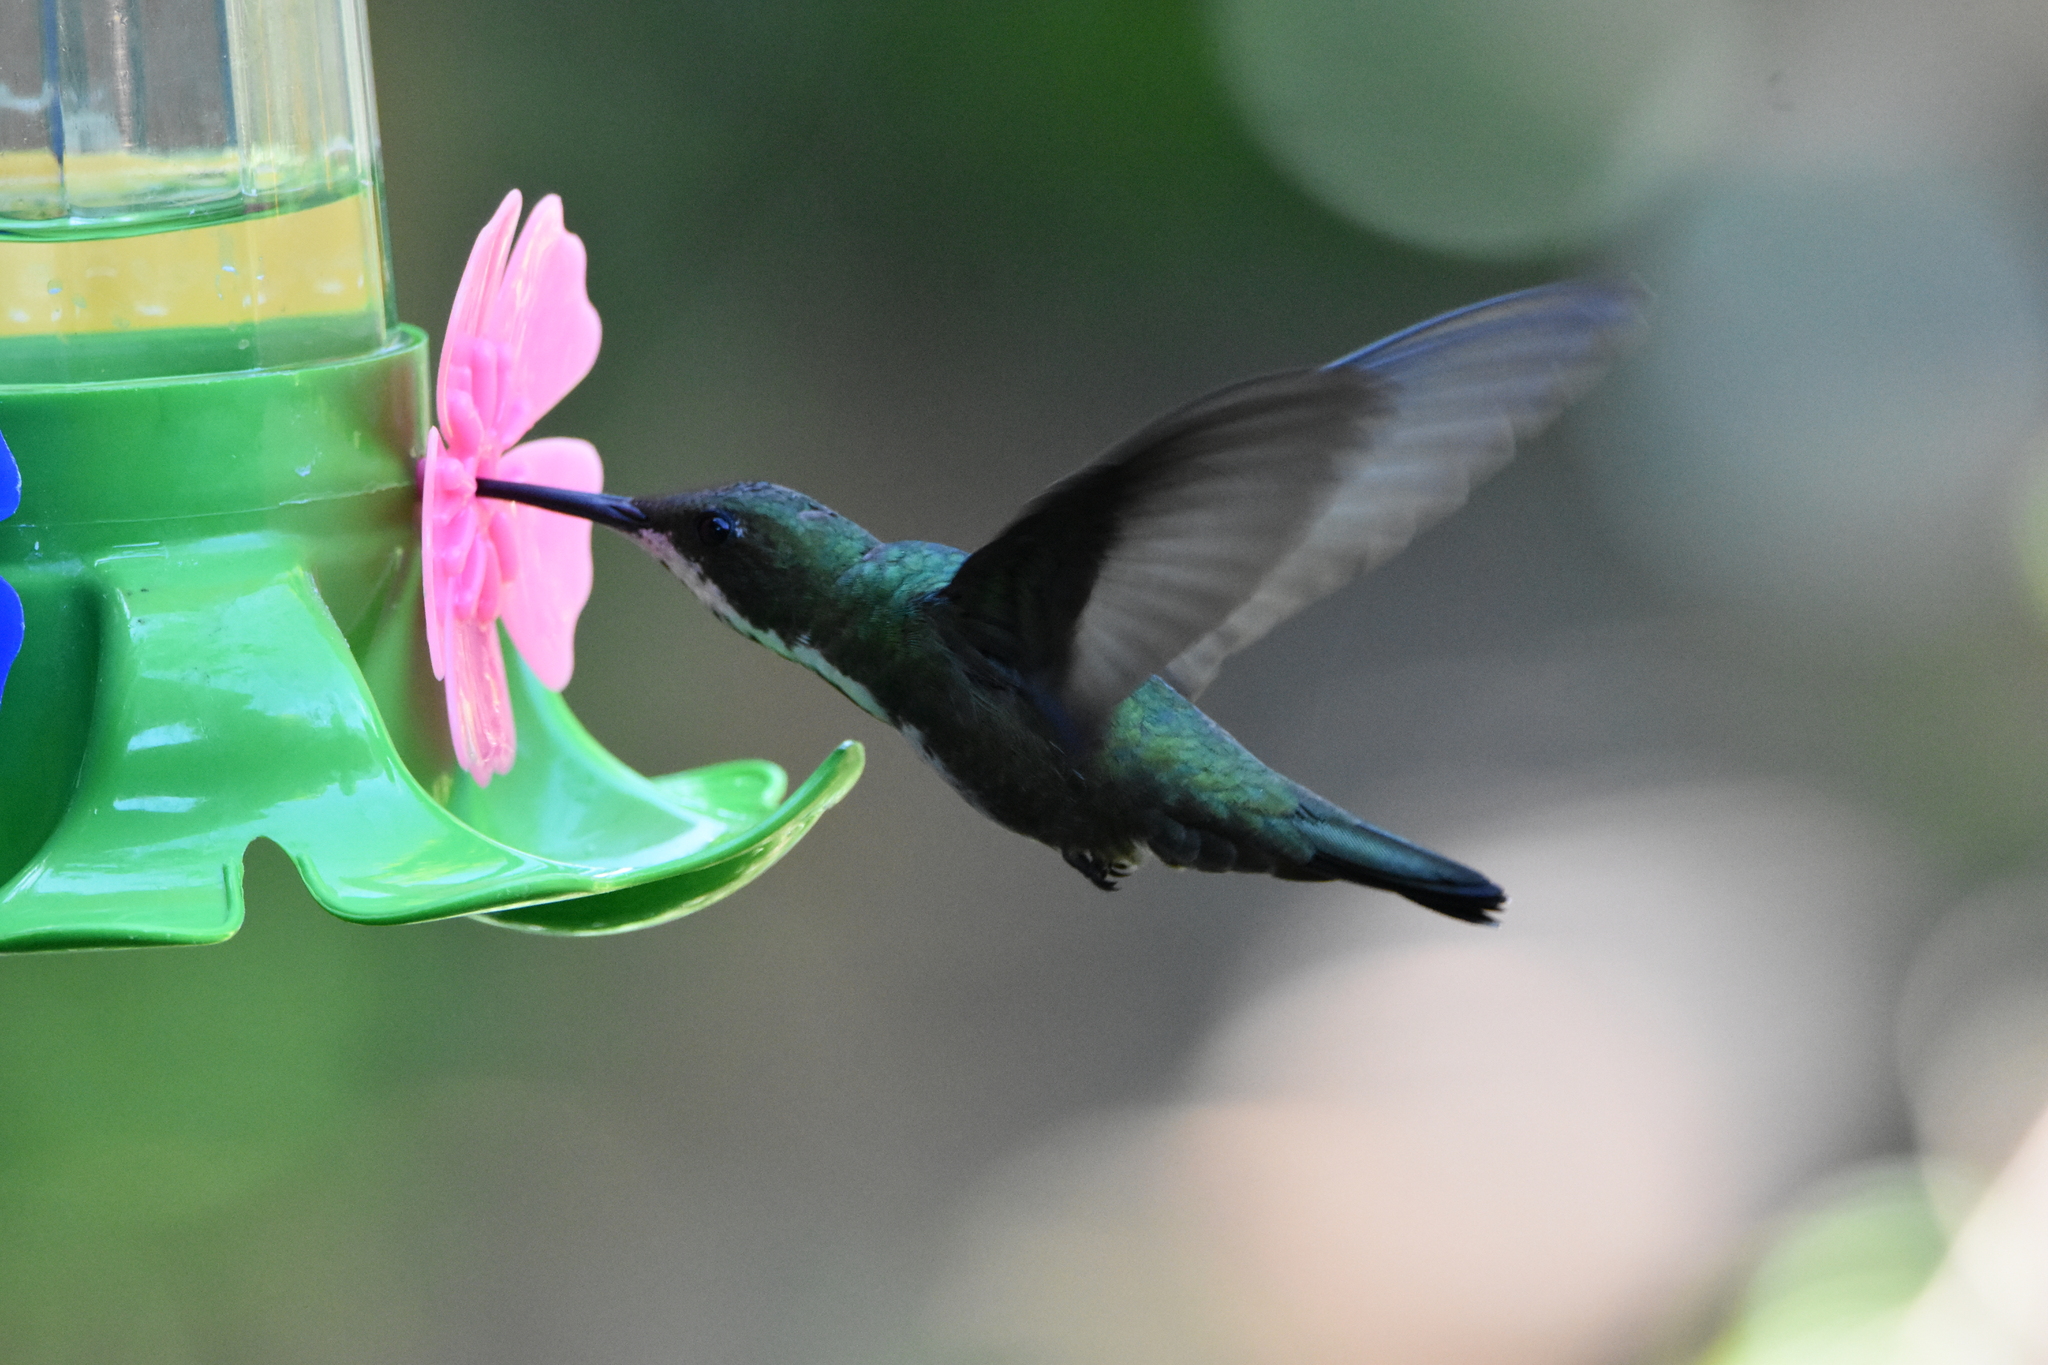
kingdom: Animalia
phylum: Chordata
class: Aves
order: Apodiformes
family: Trochilidae
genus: Anthracothorax
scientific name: Anthracothorax nigricollis
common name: Black-throated mango
